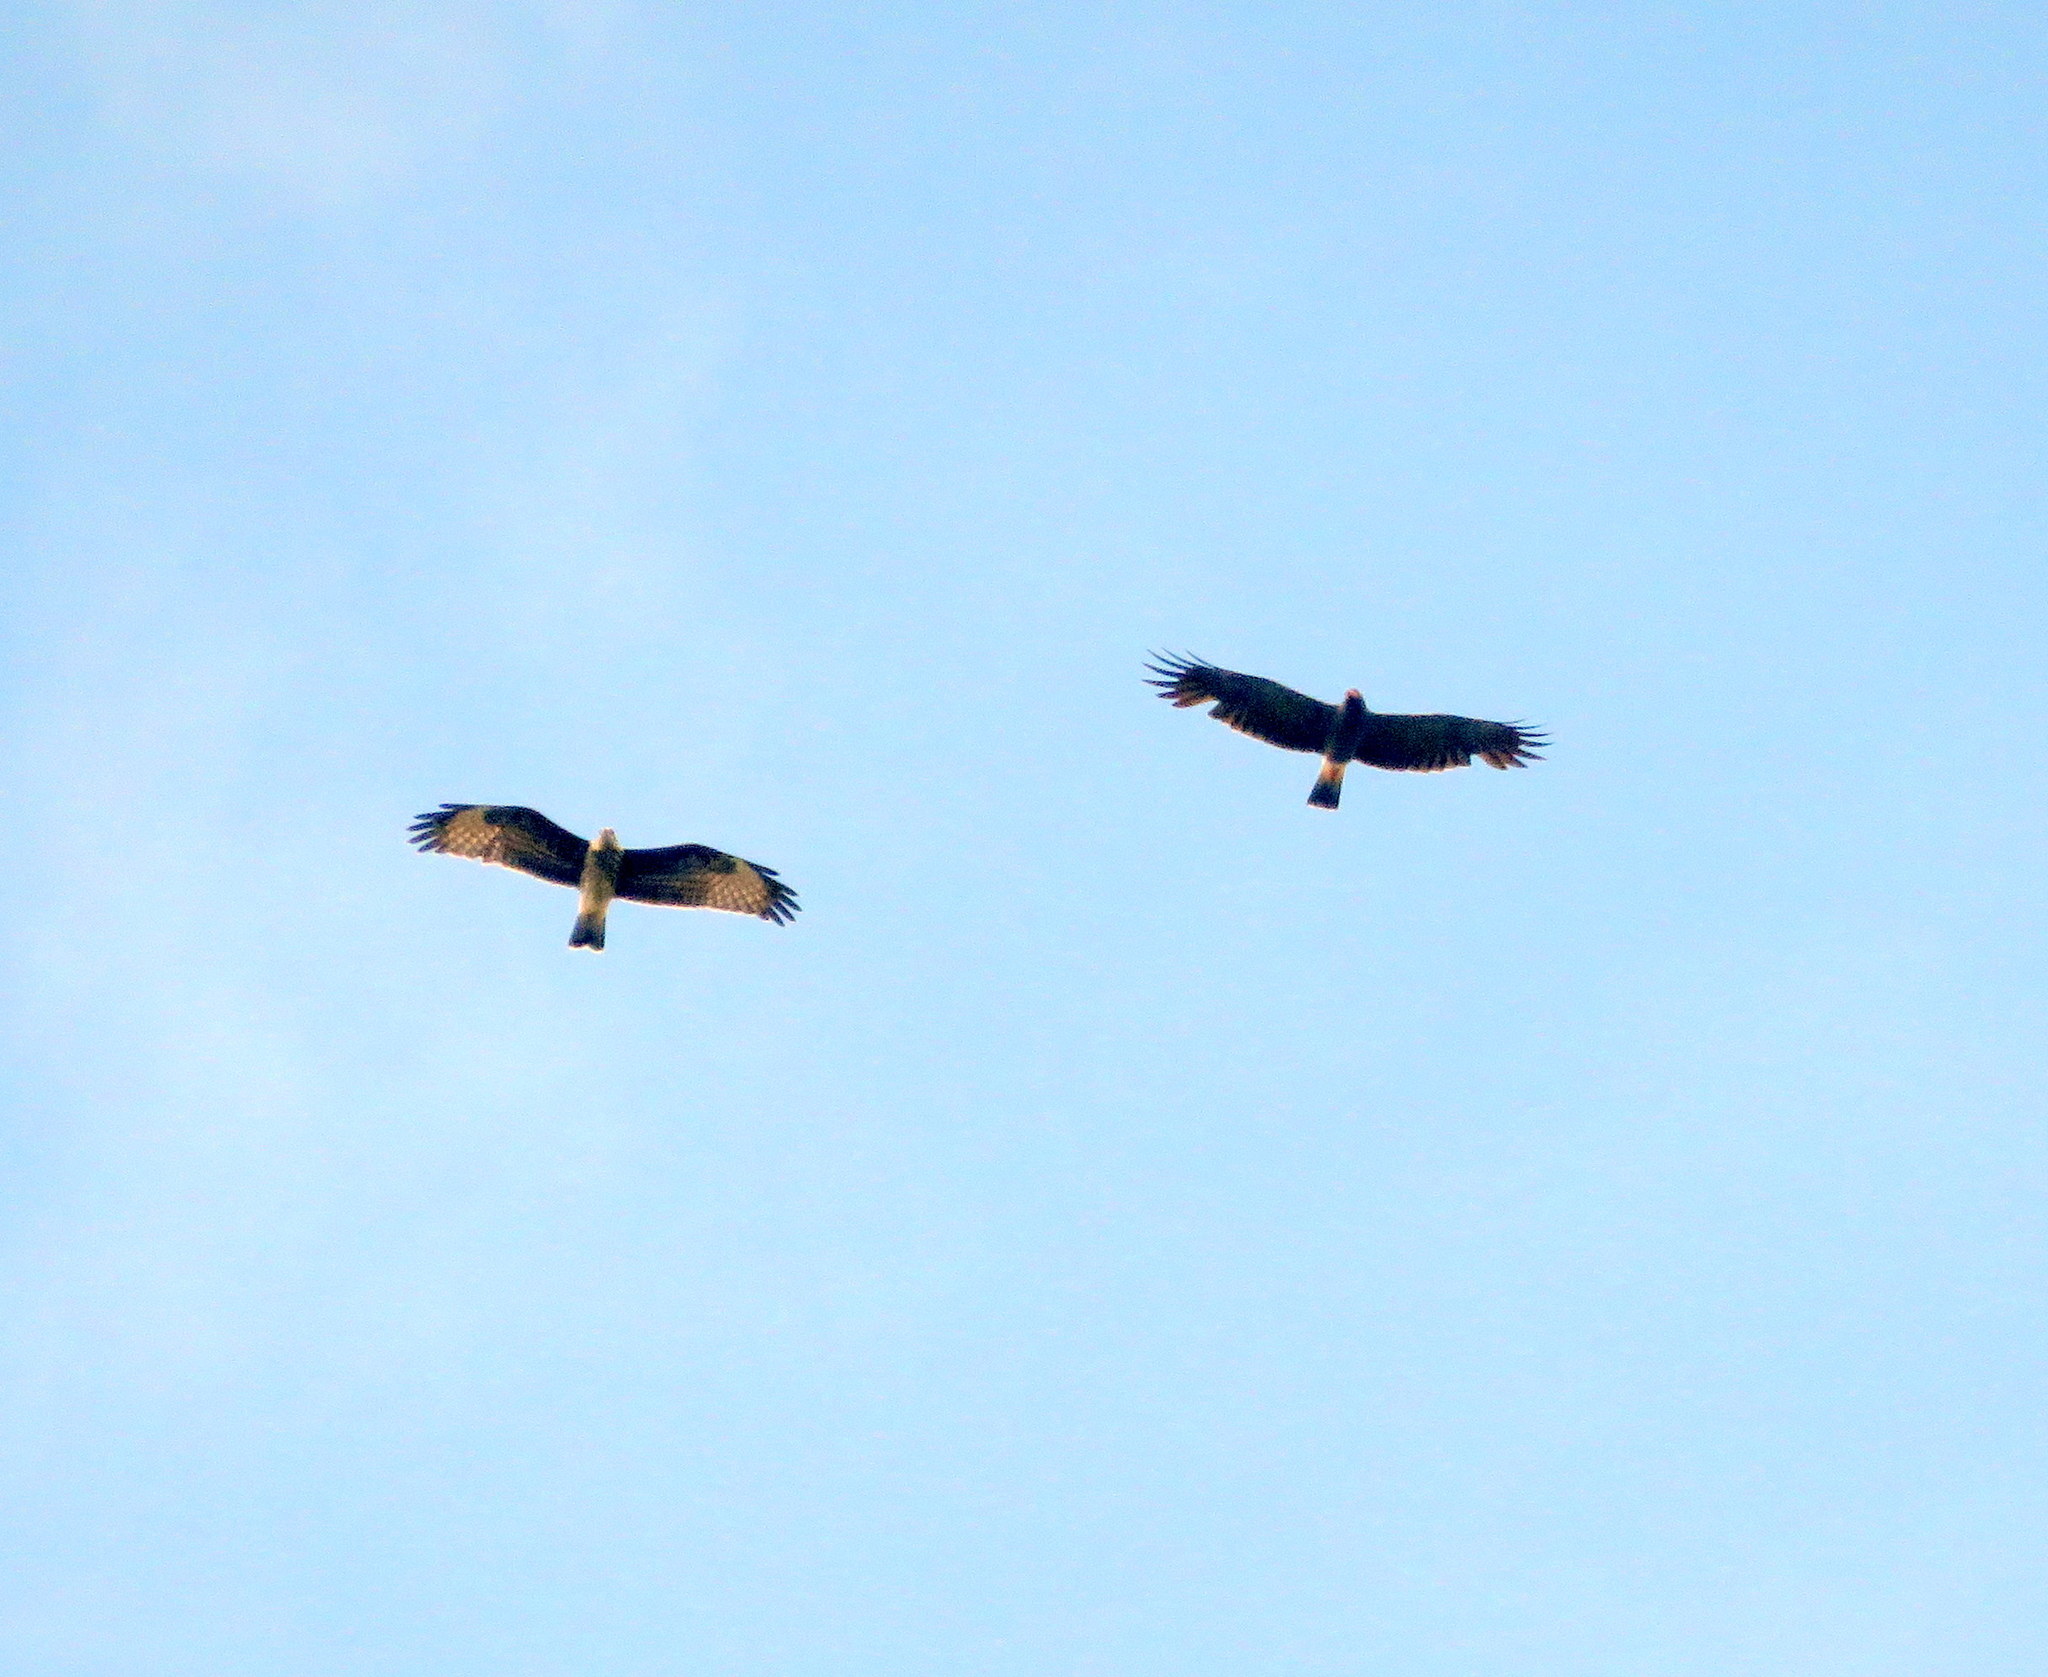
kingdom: Animalia
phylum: Chordata
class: Aves
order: Accipitriformes
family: Accipitridae
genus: Rostrhamus
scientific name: Rostrhamus sociabilis
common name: Snail kite
